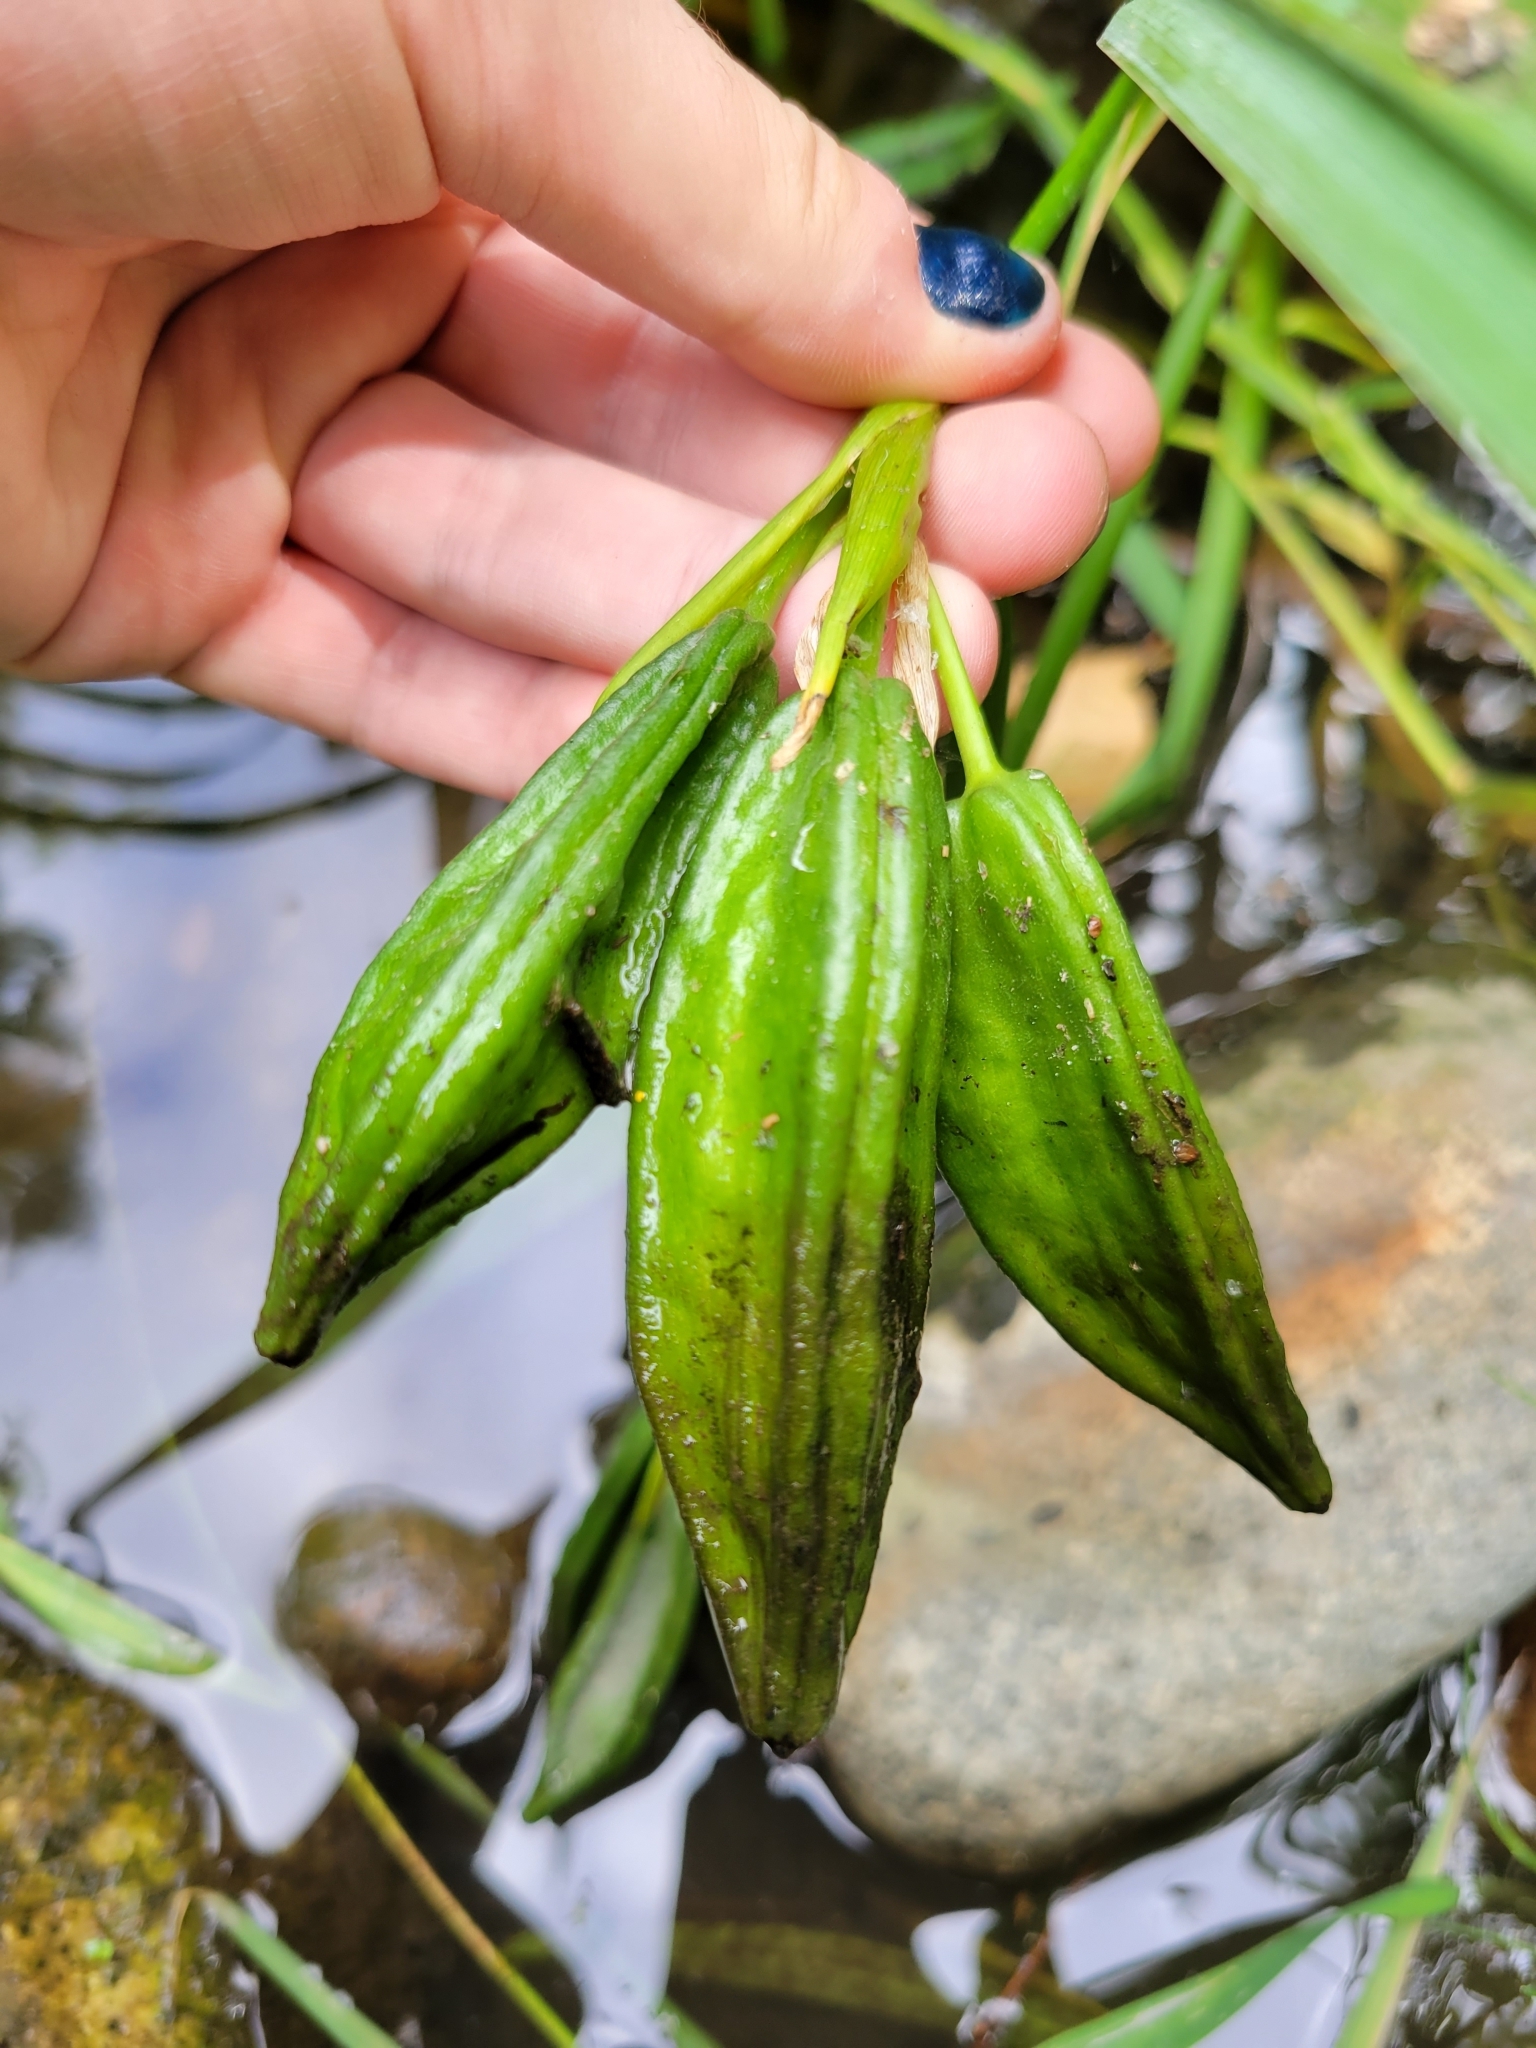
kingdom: Plantae
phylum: Tracheophyta
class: Liliopsida
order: Asparagales
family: Iridaceae
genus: Iris
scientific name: Iris pseudacorus
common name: Yellow flag
